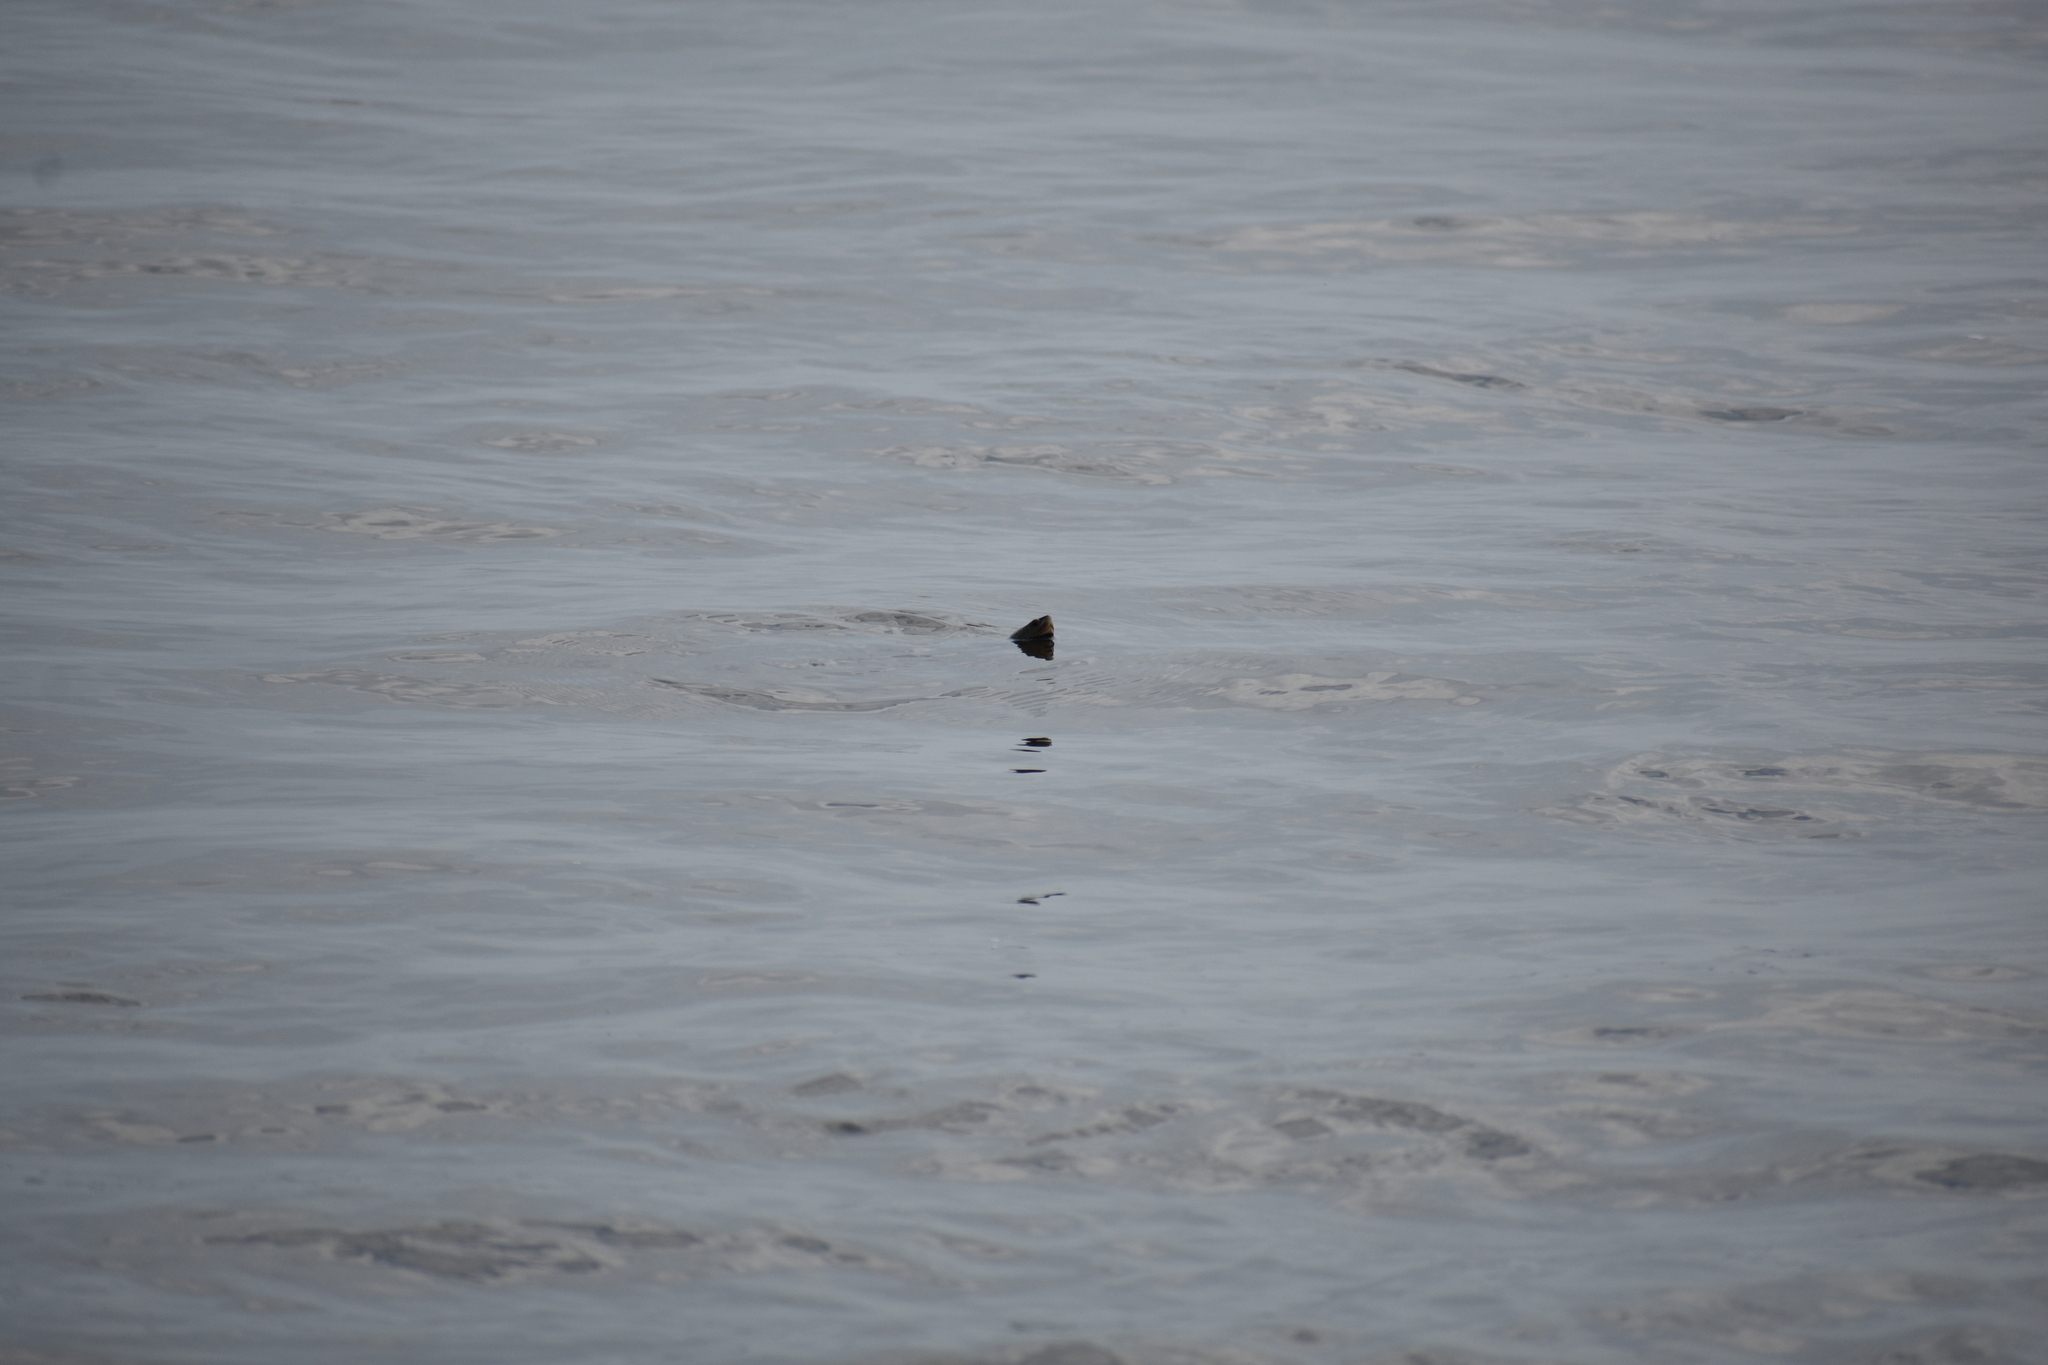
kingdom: Animalia
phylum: Chordata
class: Testudines
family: Emydidae
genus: Malaclemys
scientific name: Malaclemys terrapin
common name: Diamondback terrapin
